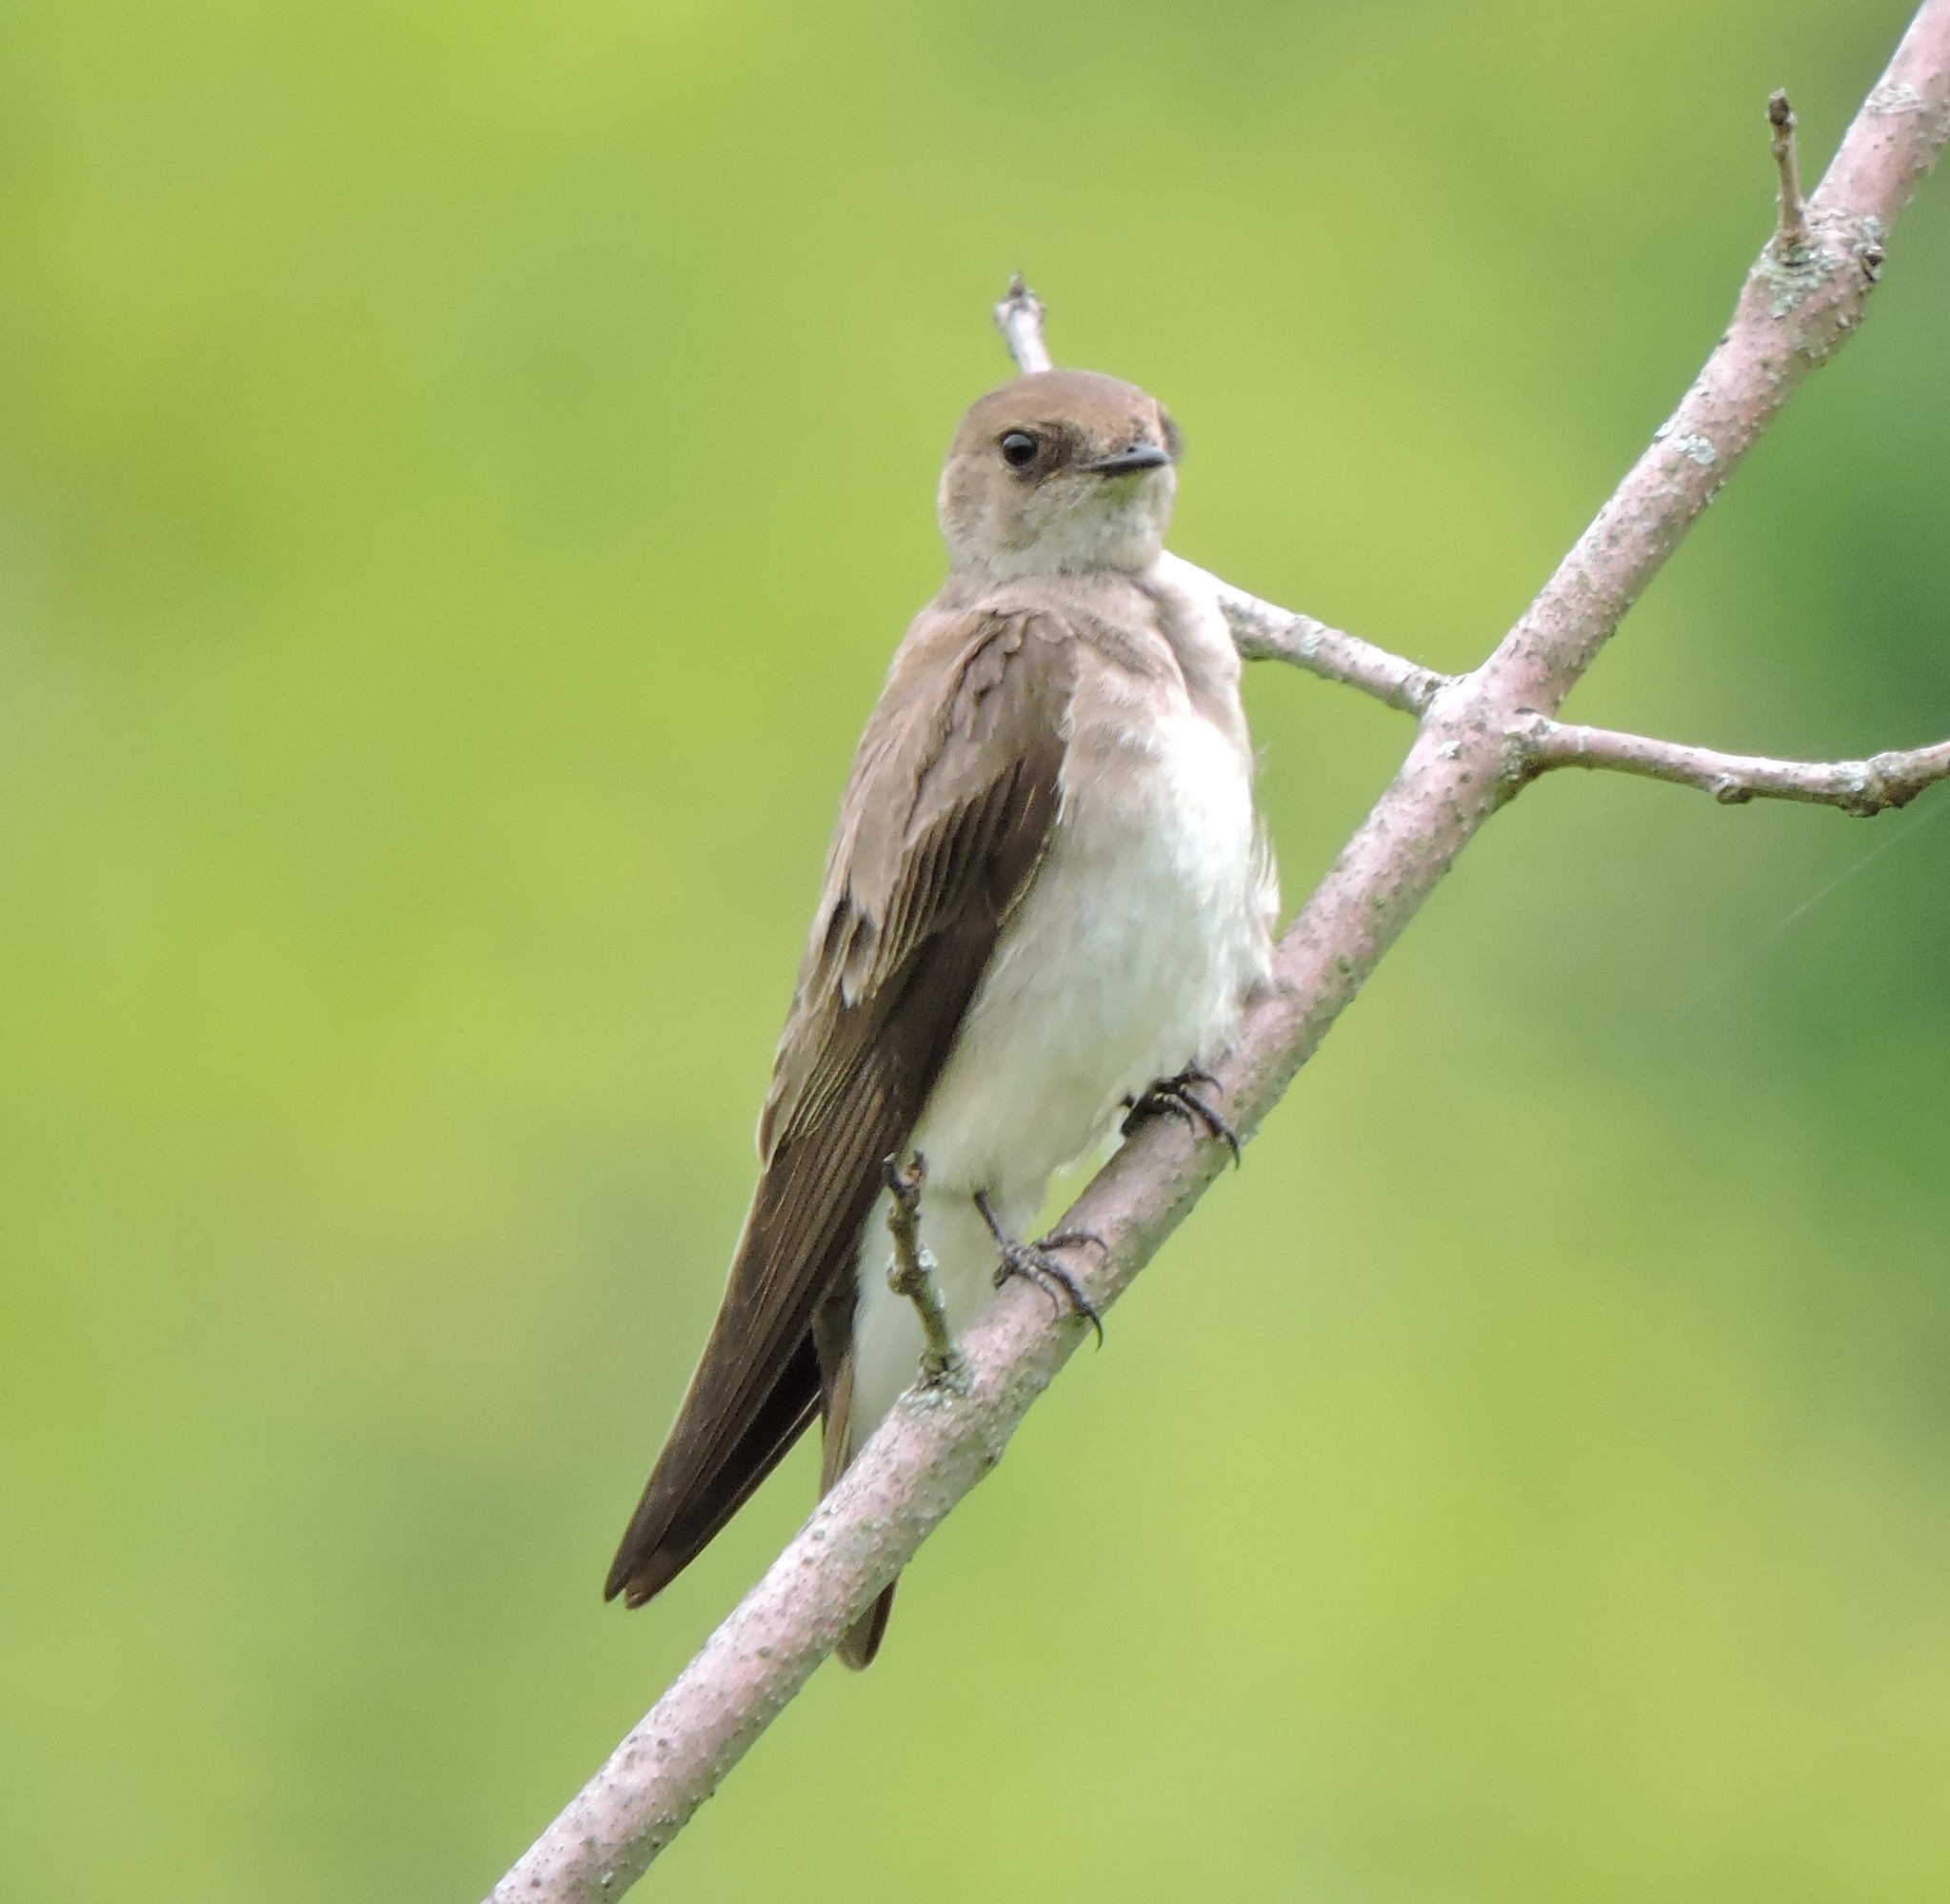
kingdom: Animalia
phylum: Chordata
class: Aves
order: Passeriformes
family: Hirundinidae
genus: Stelgidopteryx
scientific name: Stelgidopteryx serripennis
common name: Northern rough-winged swallow
